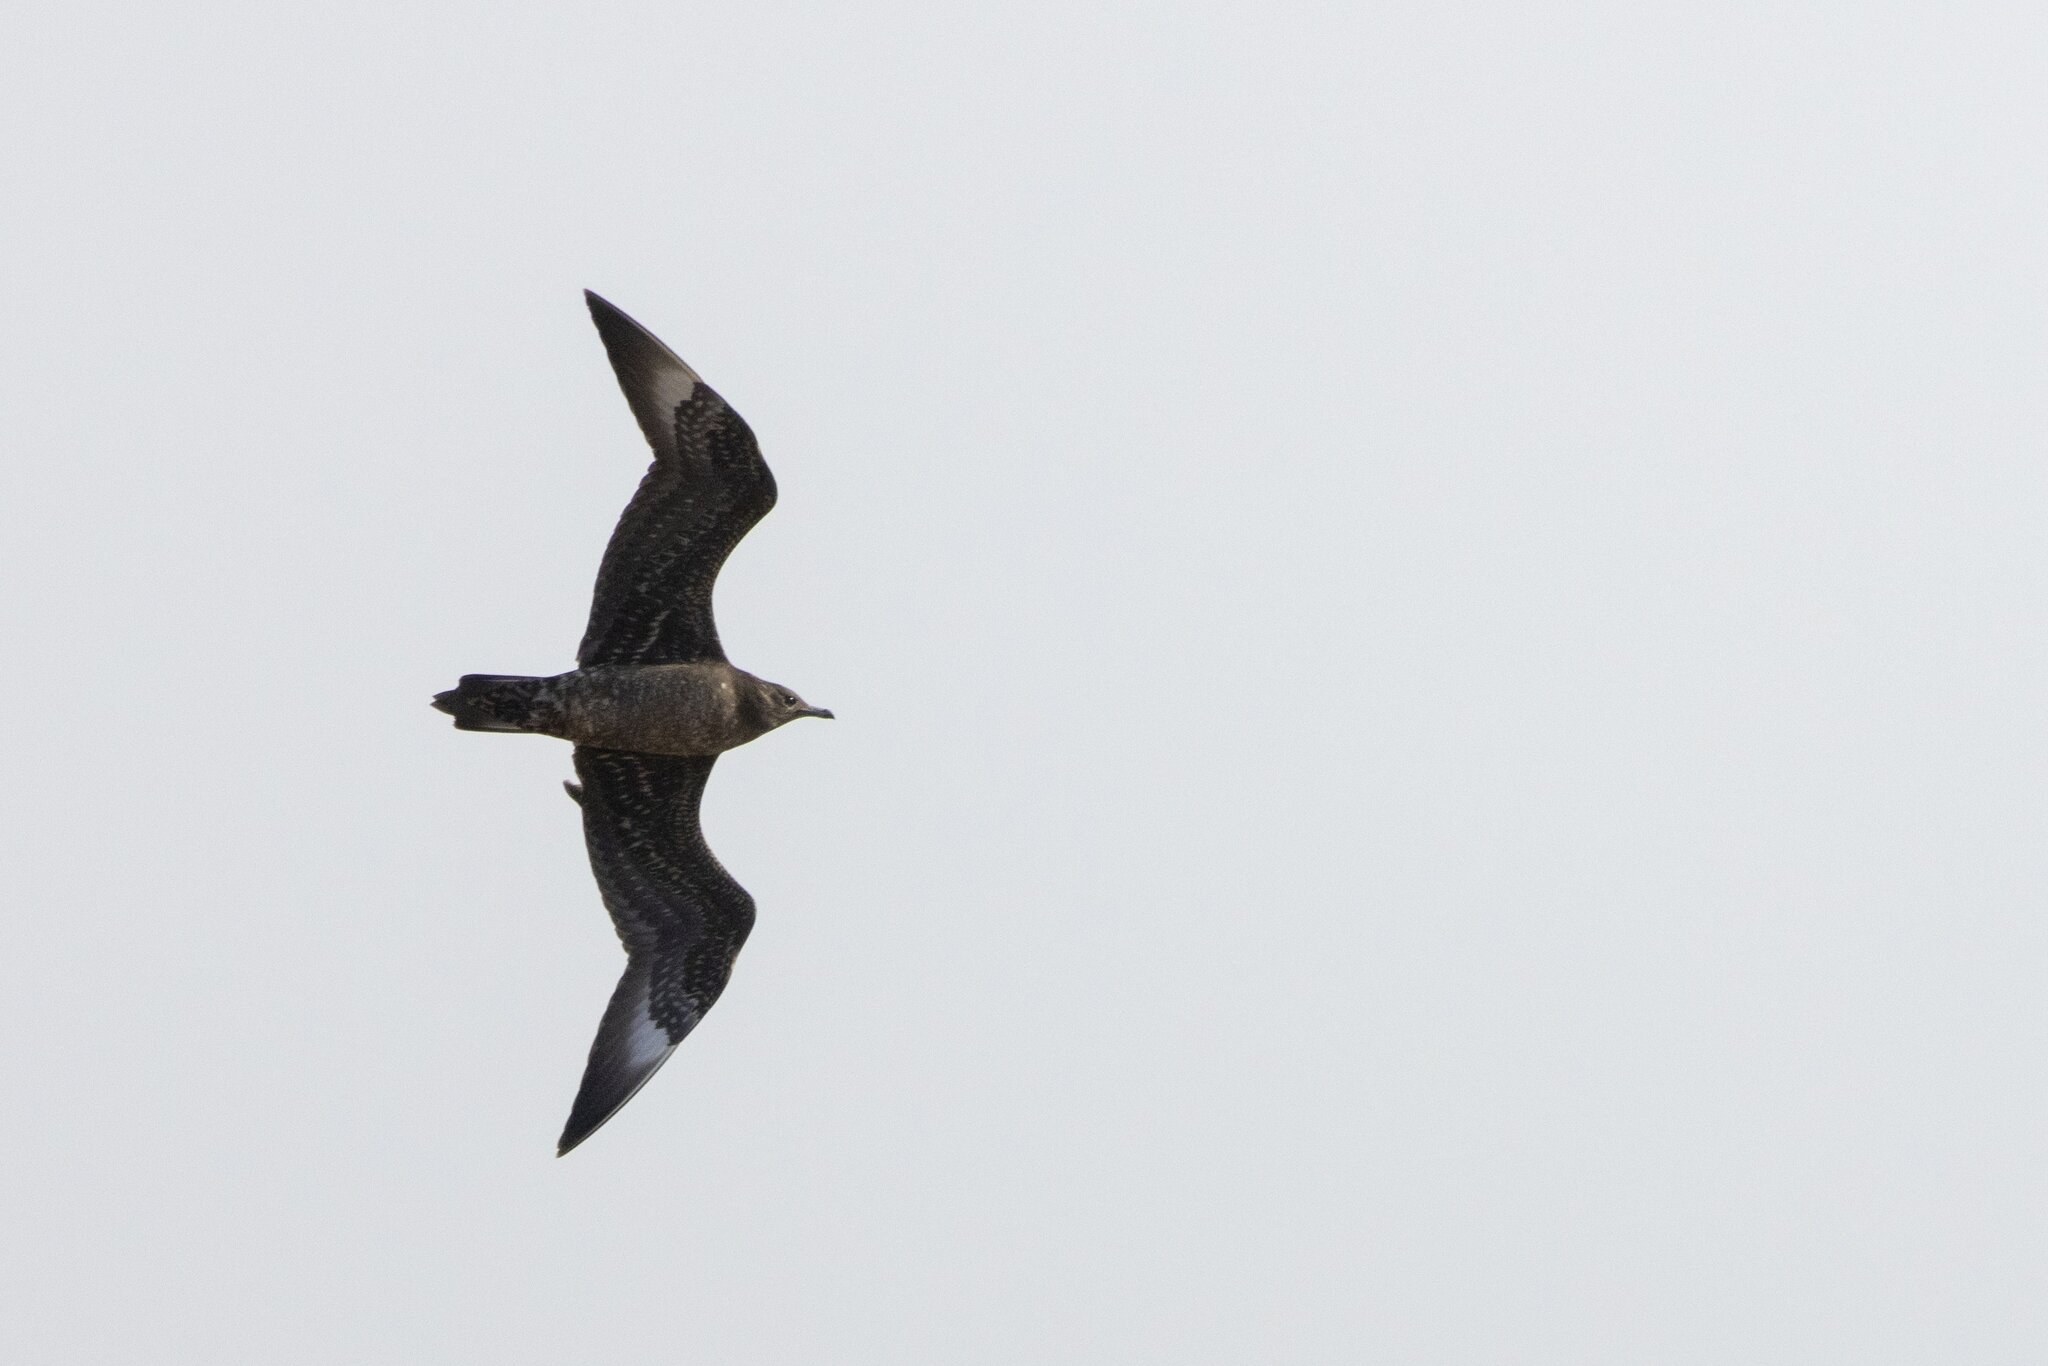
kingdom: Animalia
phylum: Chordata
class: Aves
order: Charadriiformes
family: Stercorariidae
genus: Stercorarius
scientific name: Stercorarius parasiticus
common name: Parasitic jaeger
